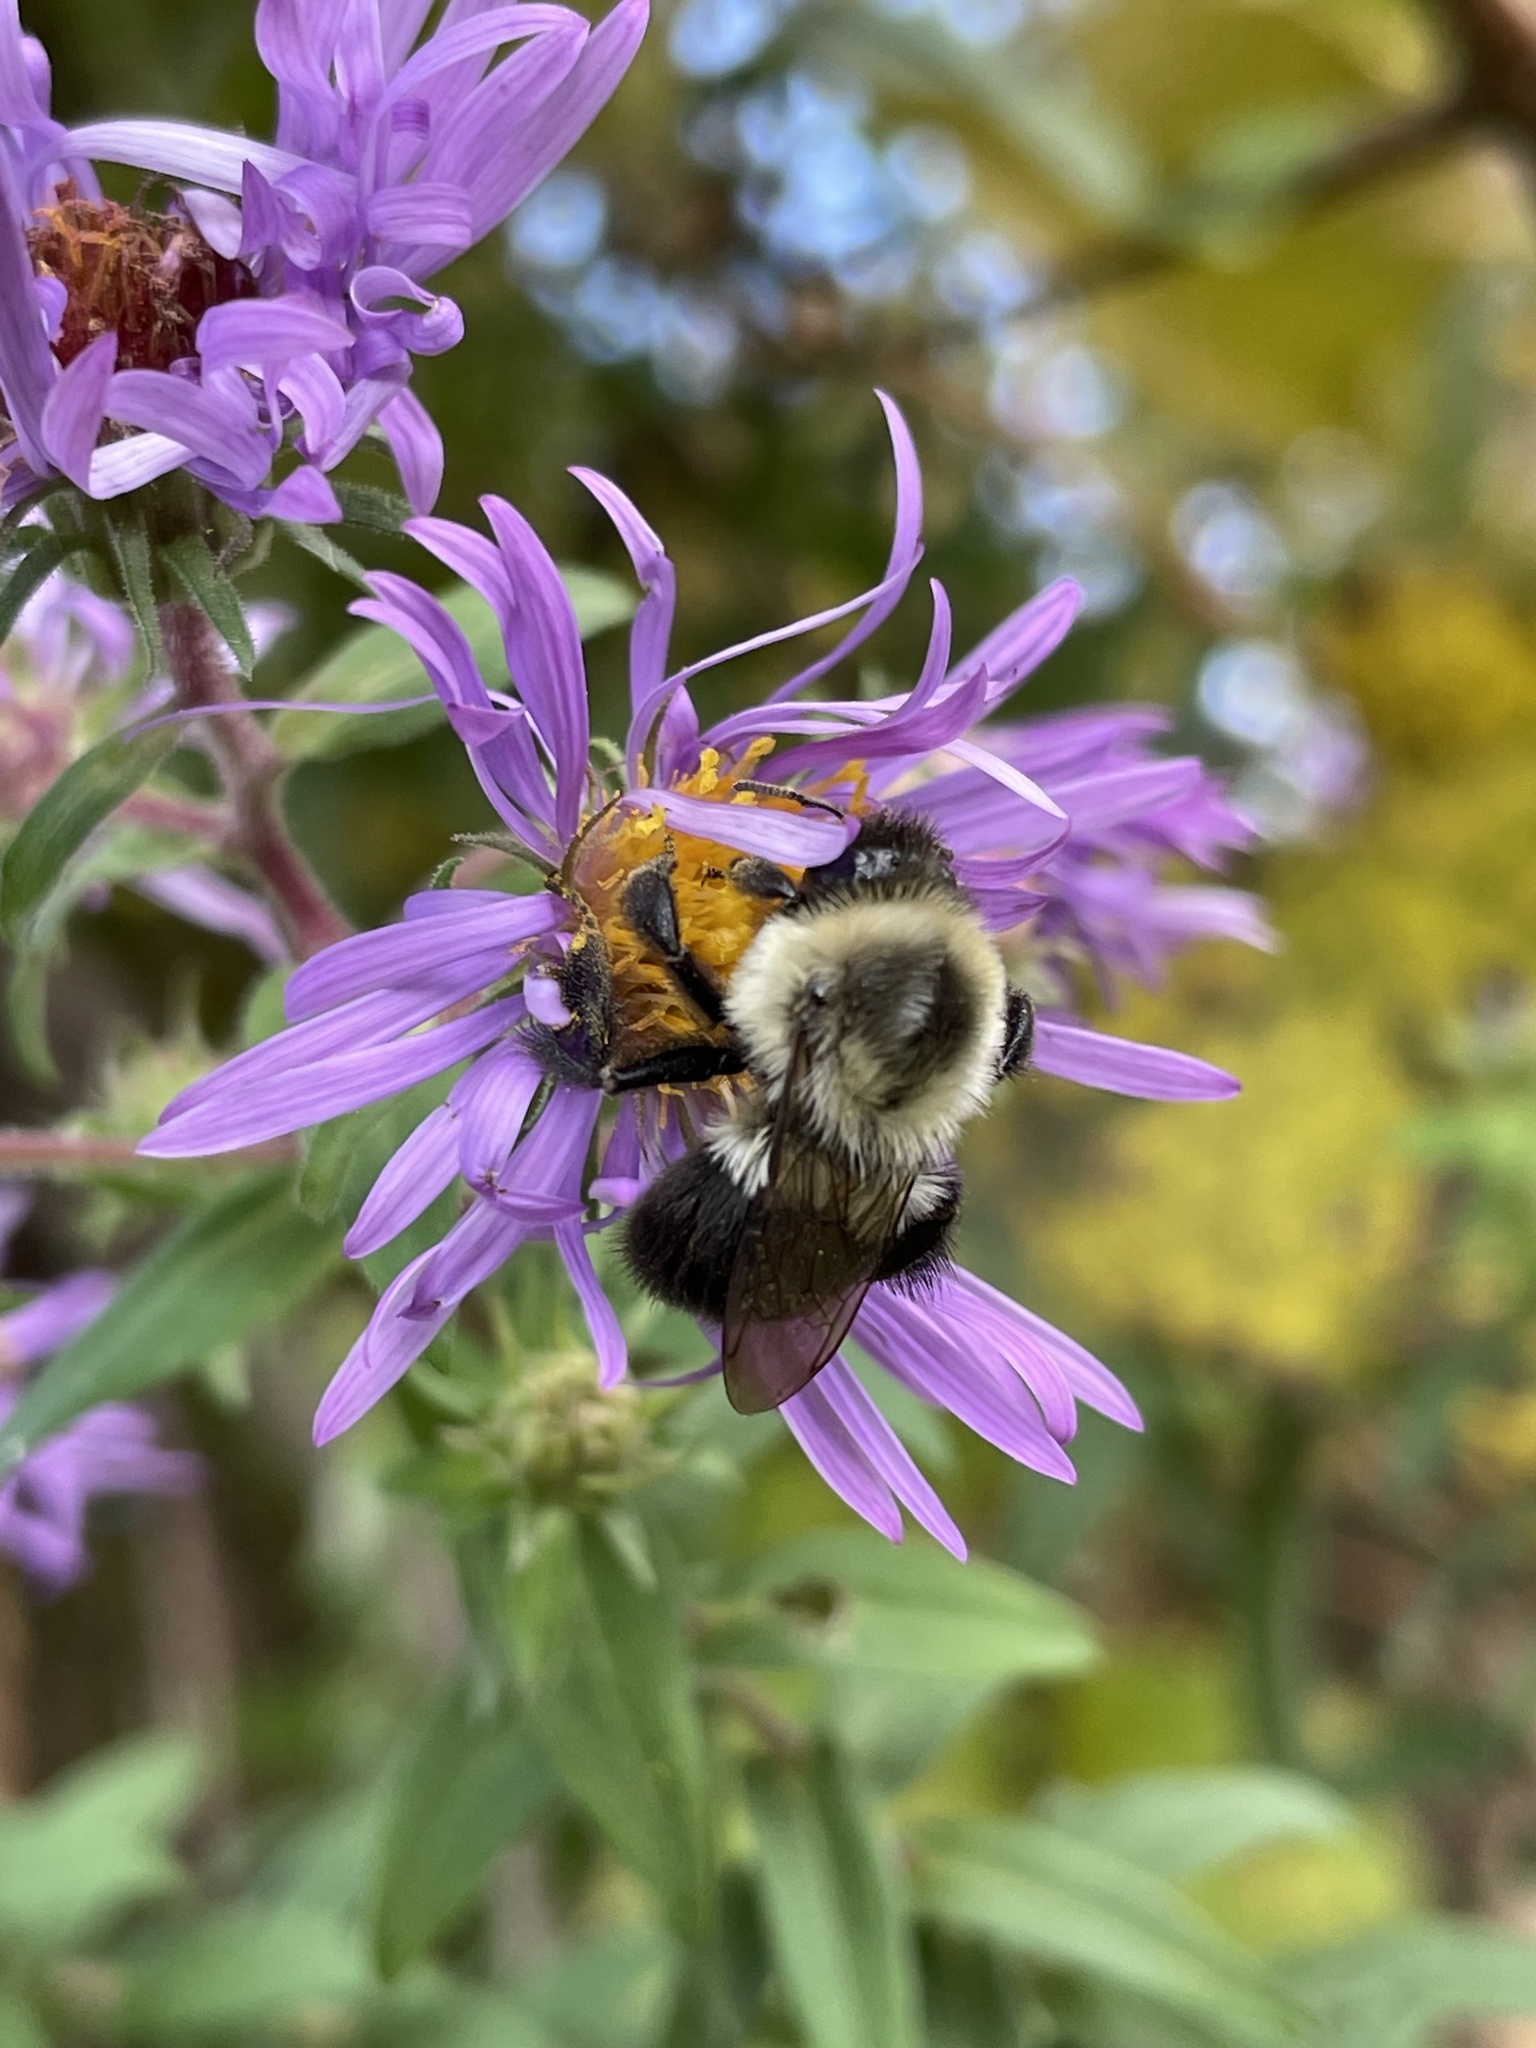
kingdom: Animalia
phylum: Arthropoda
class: Insecta
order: Hymenoptera
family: Apidae
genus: Bombus
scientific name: Bombus impatiens
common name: Common eastern bumble bee
